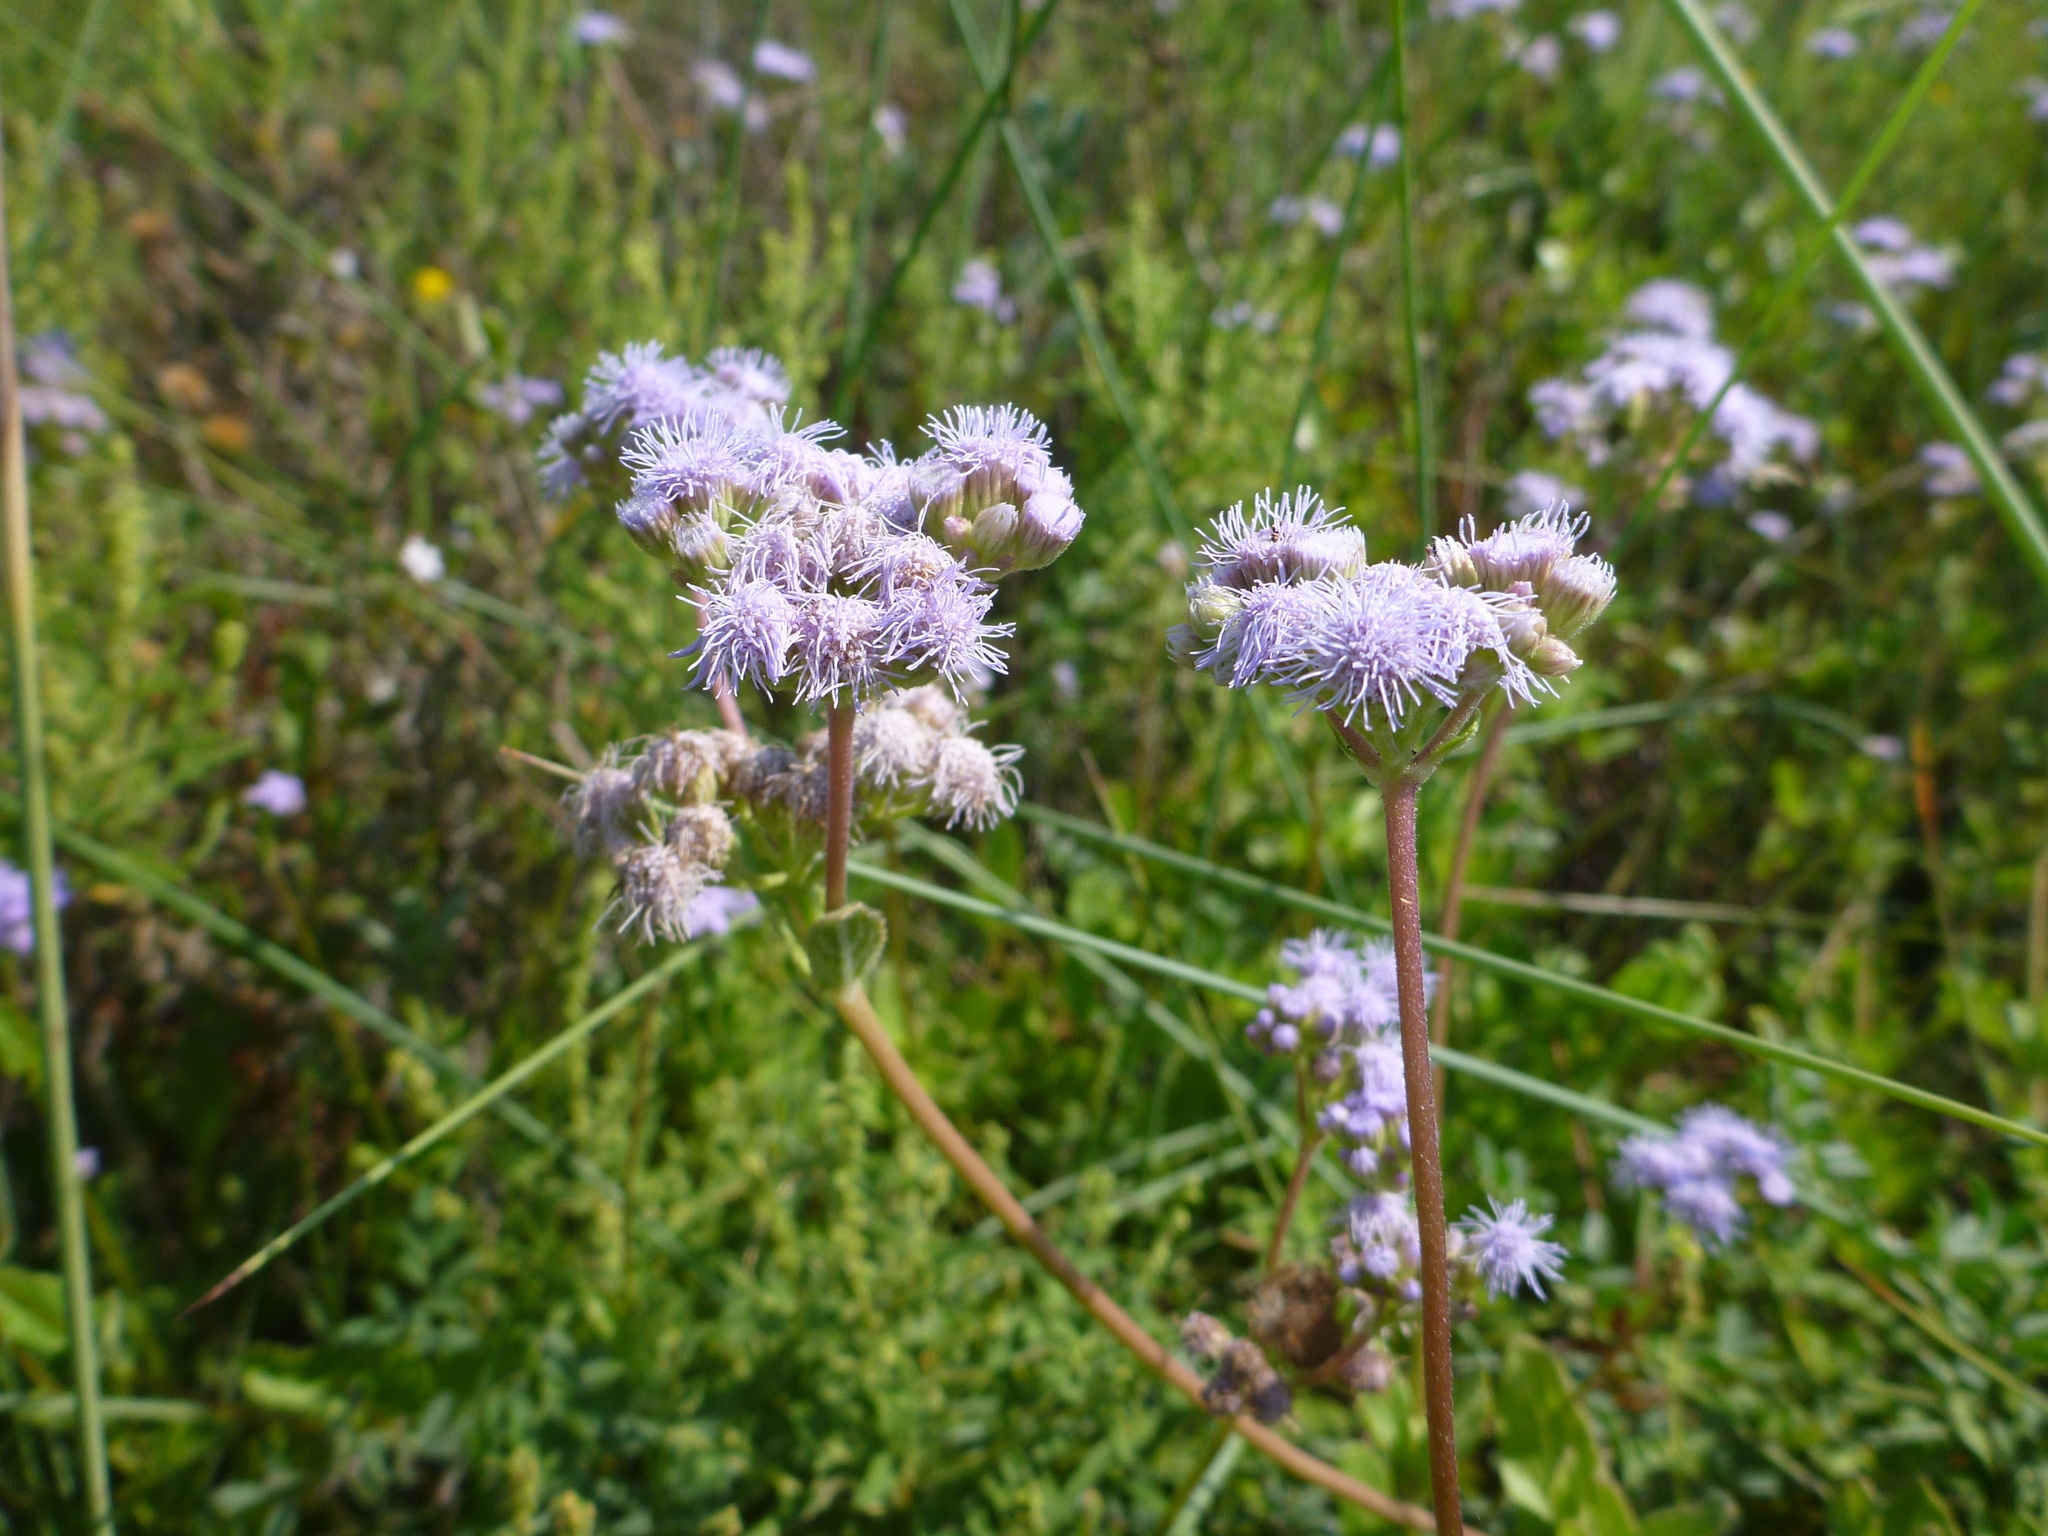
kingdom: Plantae
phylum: Tracheophyta
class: Magnoliopsida
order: Asterales
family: Asteraceae
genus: Conoclinium
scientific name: Conoclinium betonicifolium
